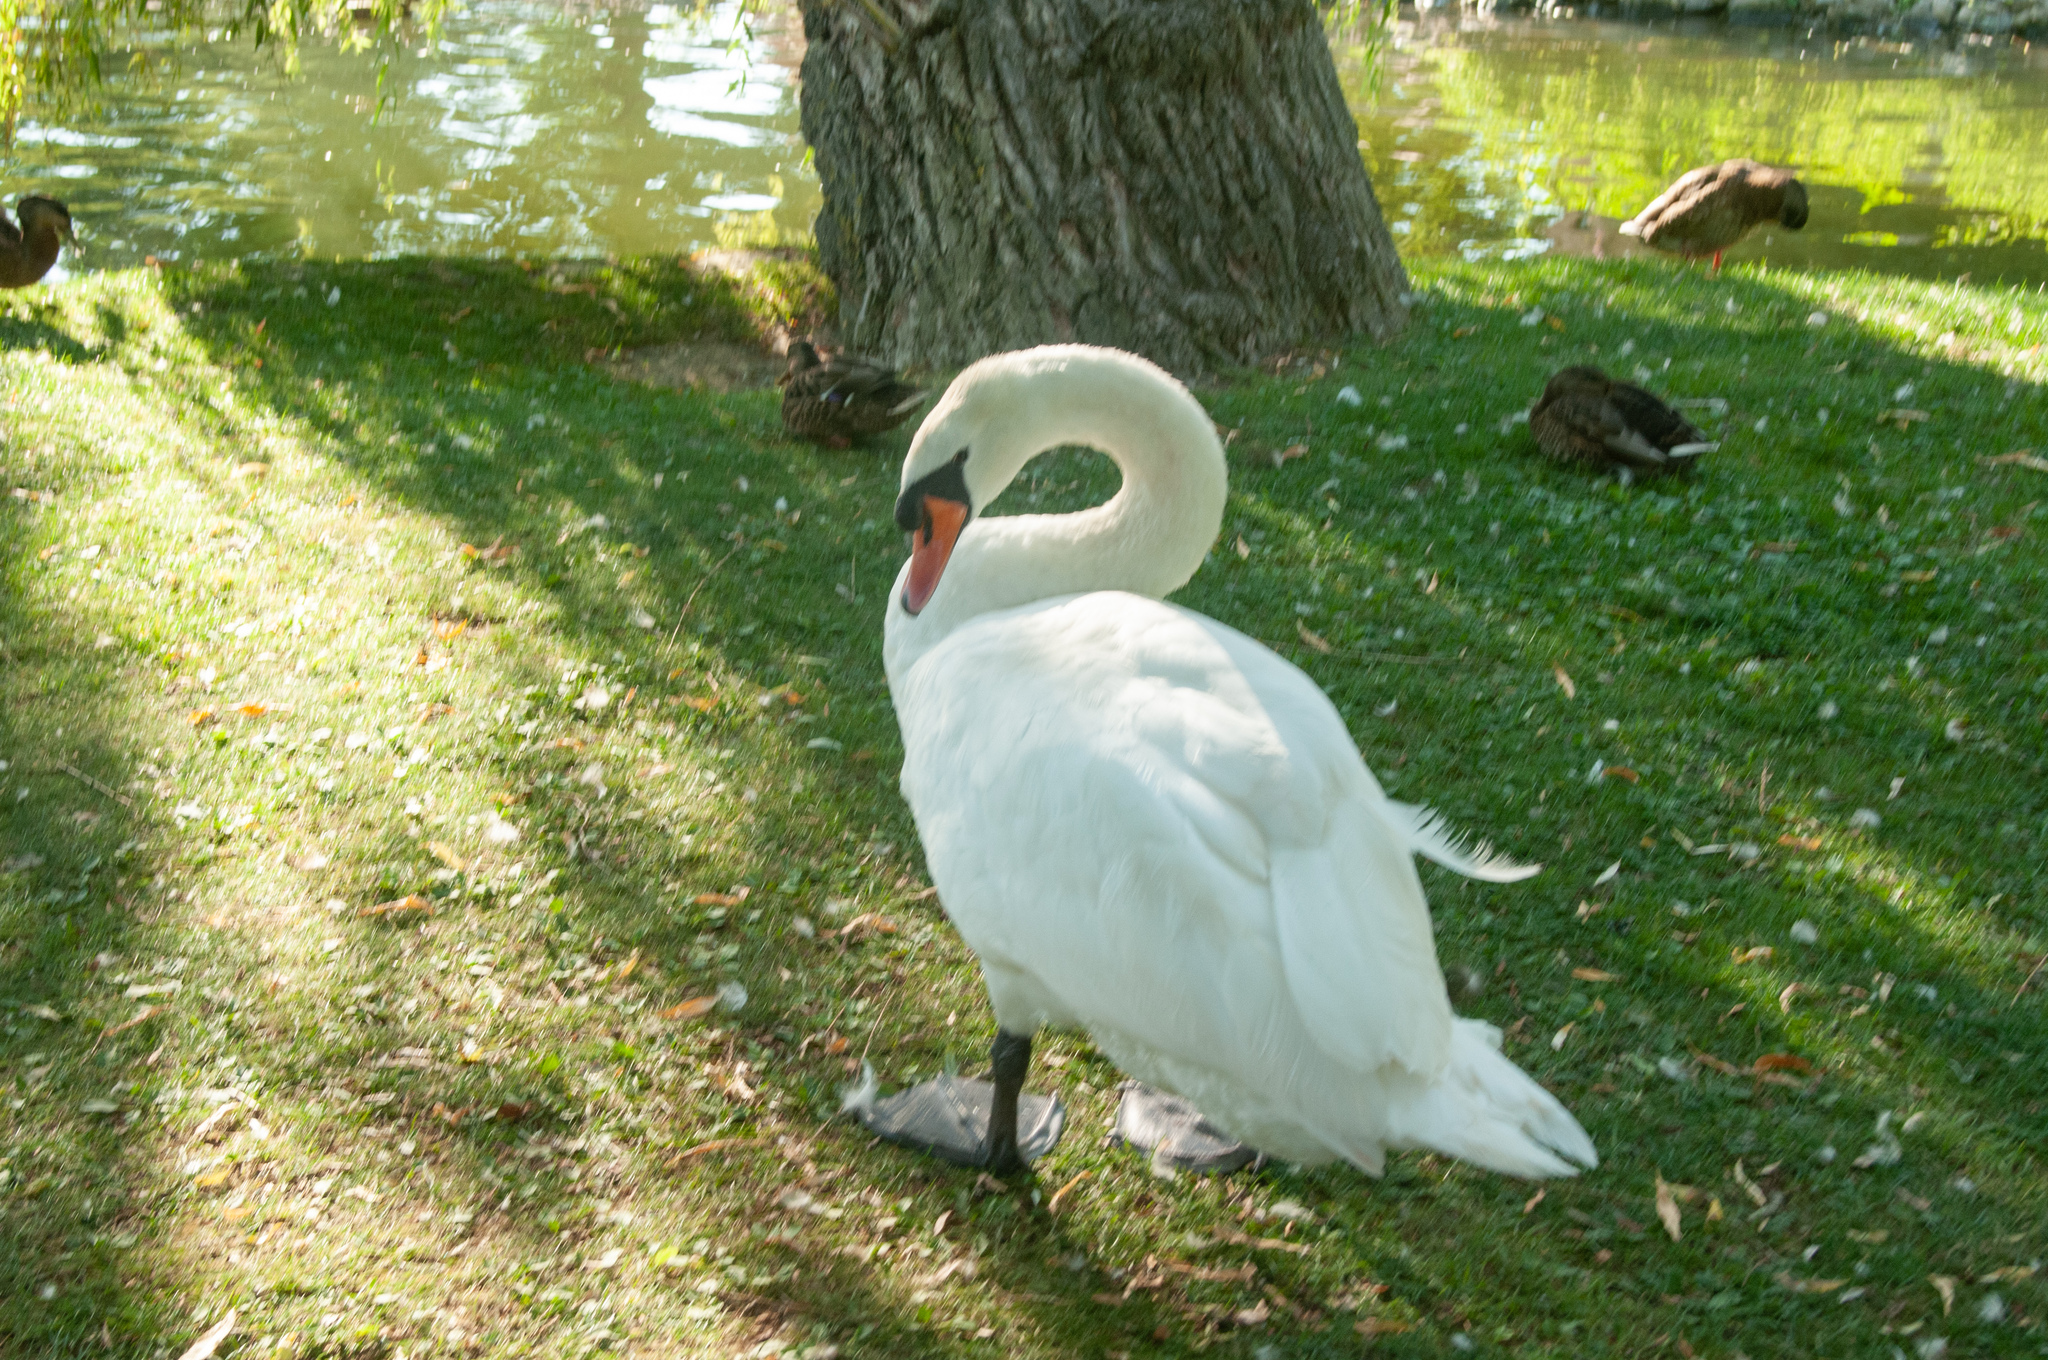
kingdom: Animalia
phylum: Chordata
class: Aves
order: Anseriformes
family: Anatidae
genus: Cygnus
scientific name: Cygnus olor
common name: Mute swan
